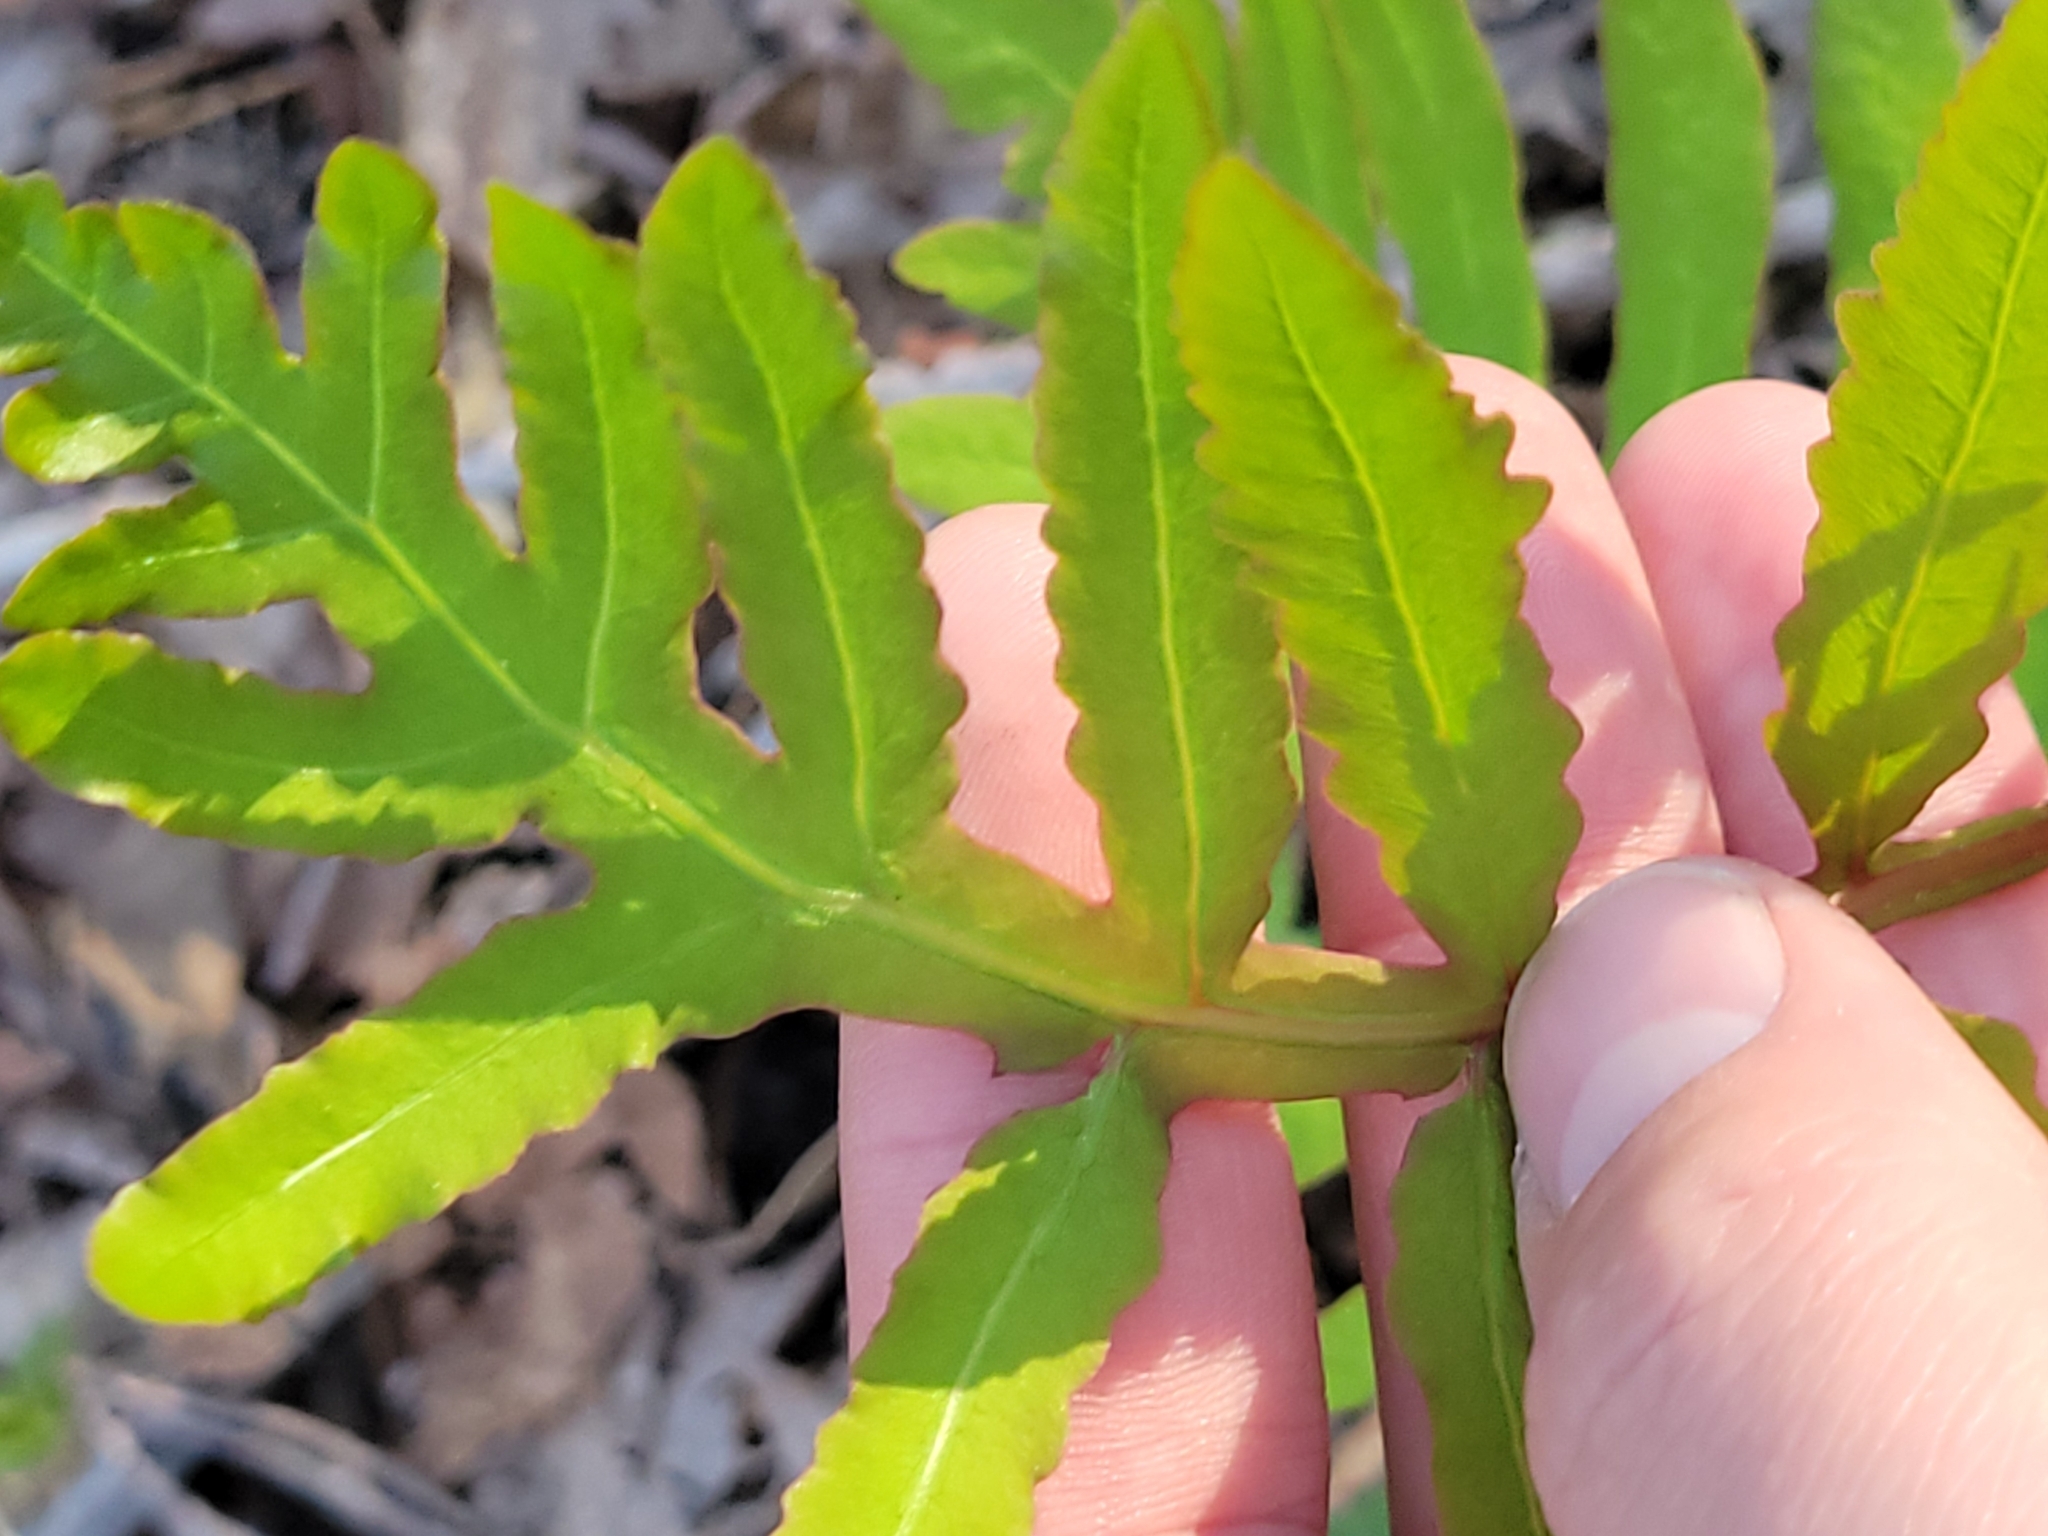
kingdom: Plantae
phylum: Tracheophyta
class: Polypodiopsida
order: Polypodiales
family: Onocleaceae
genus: Onoclea
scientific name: Onoclea sensibilis
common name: Sensitive fern
